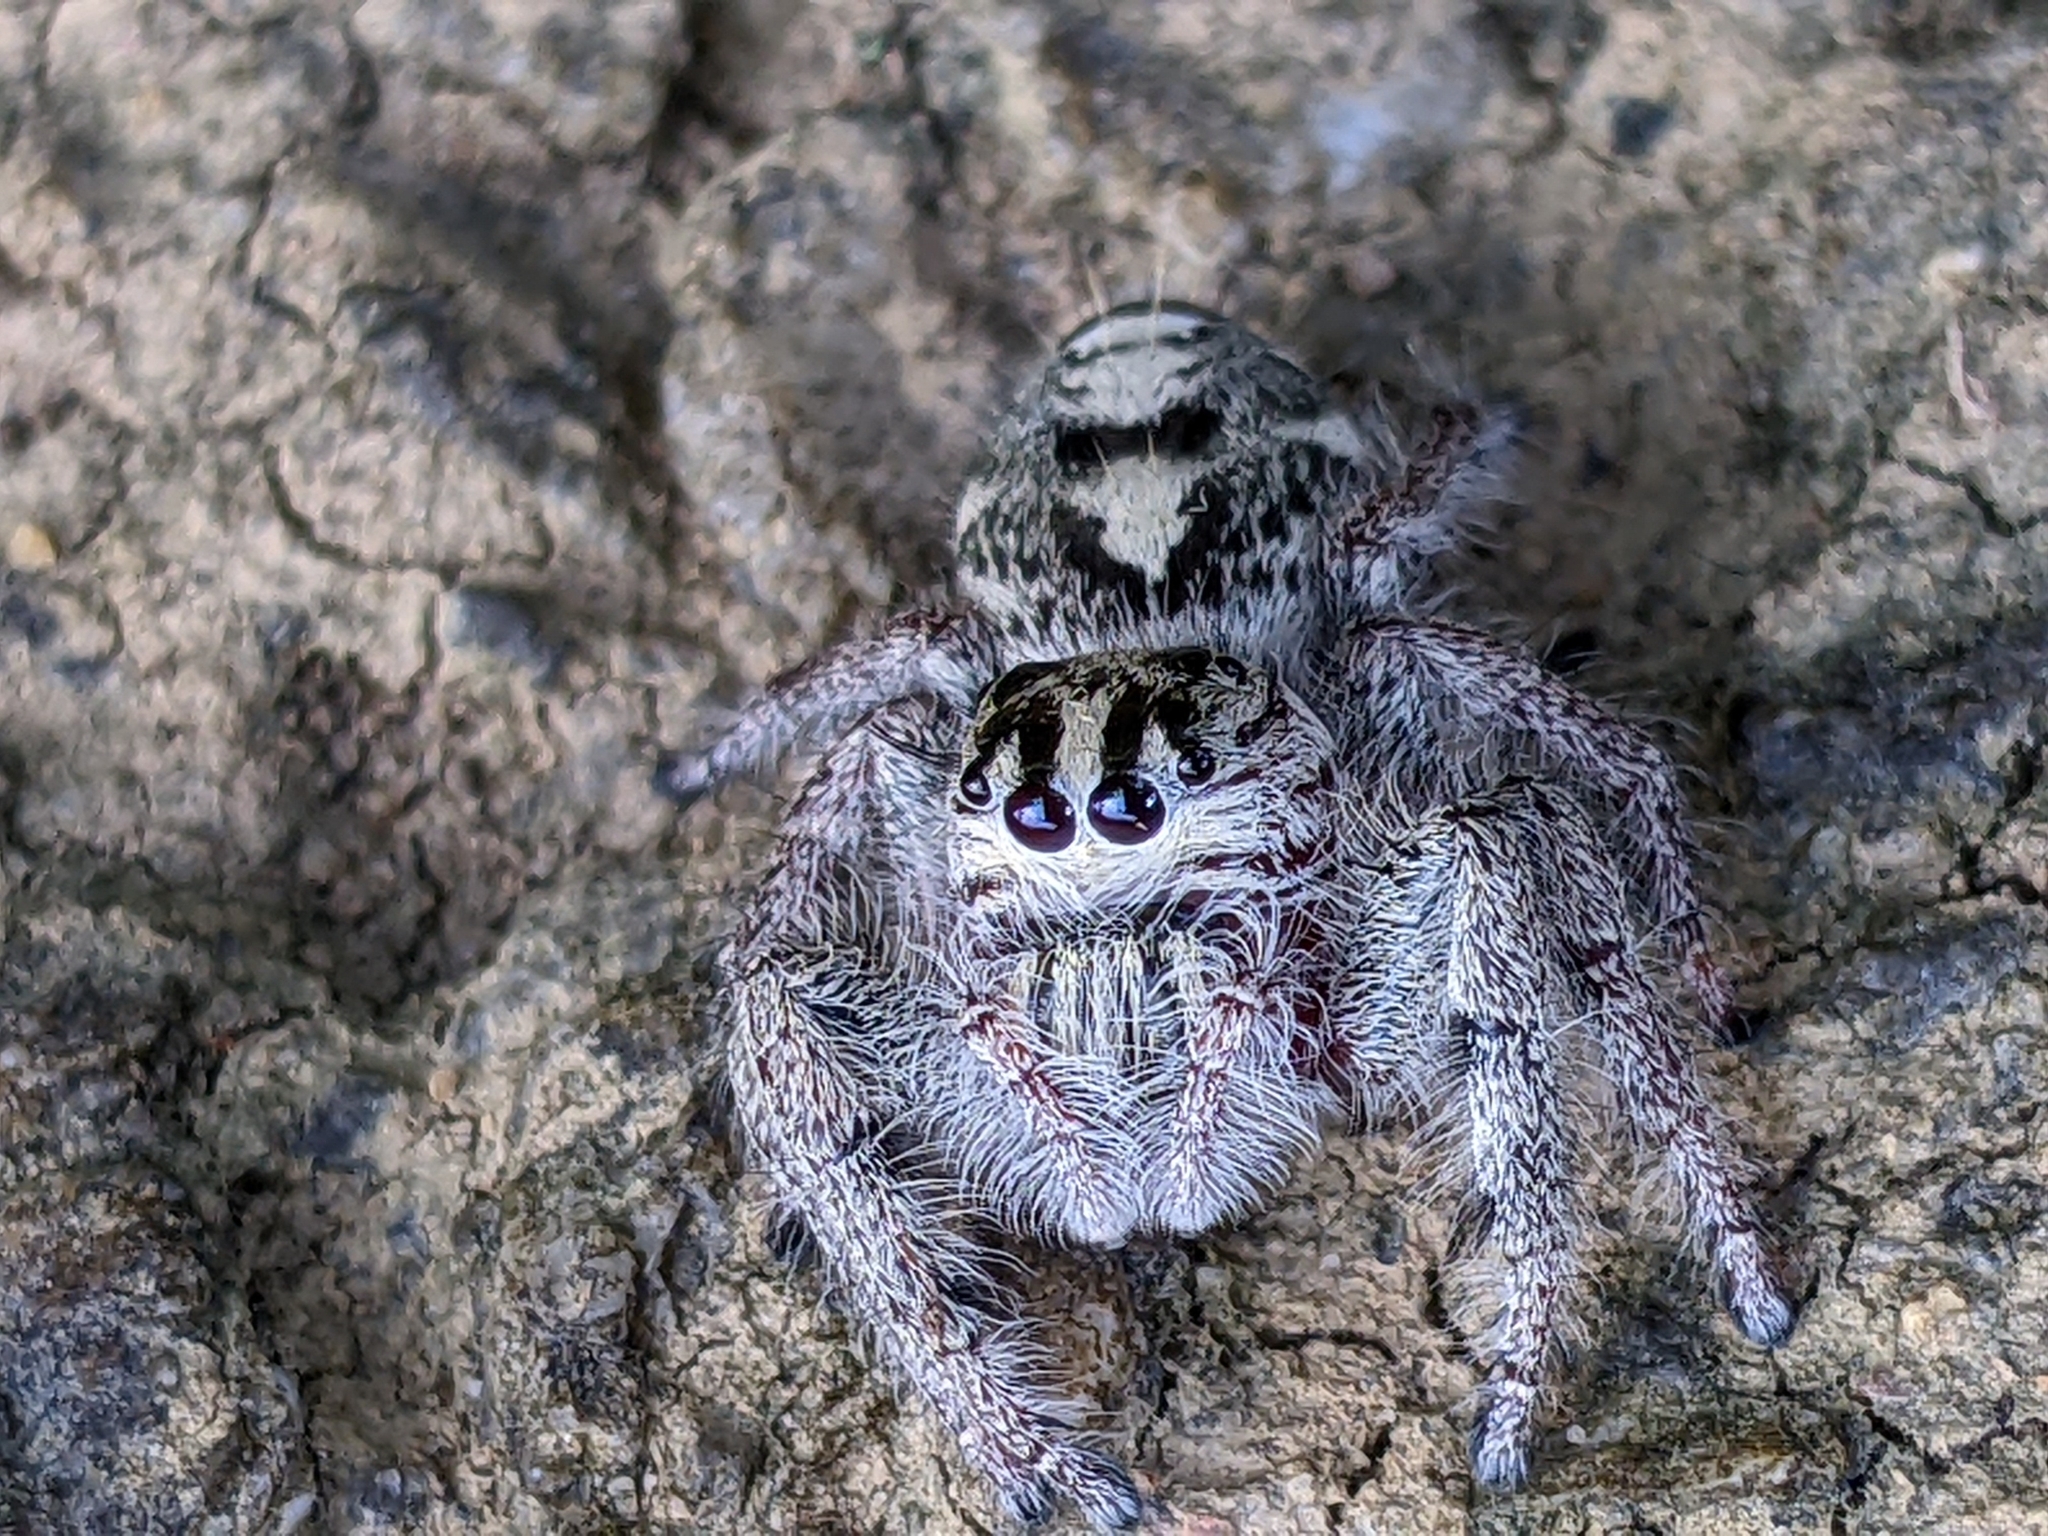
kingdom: Animalia
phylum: Arthropoda
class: Arachnida
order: Araneae
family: Salticidae
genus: Hyllus
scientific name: Hyllus diardi
